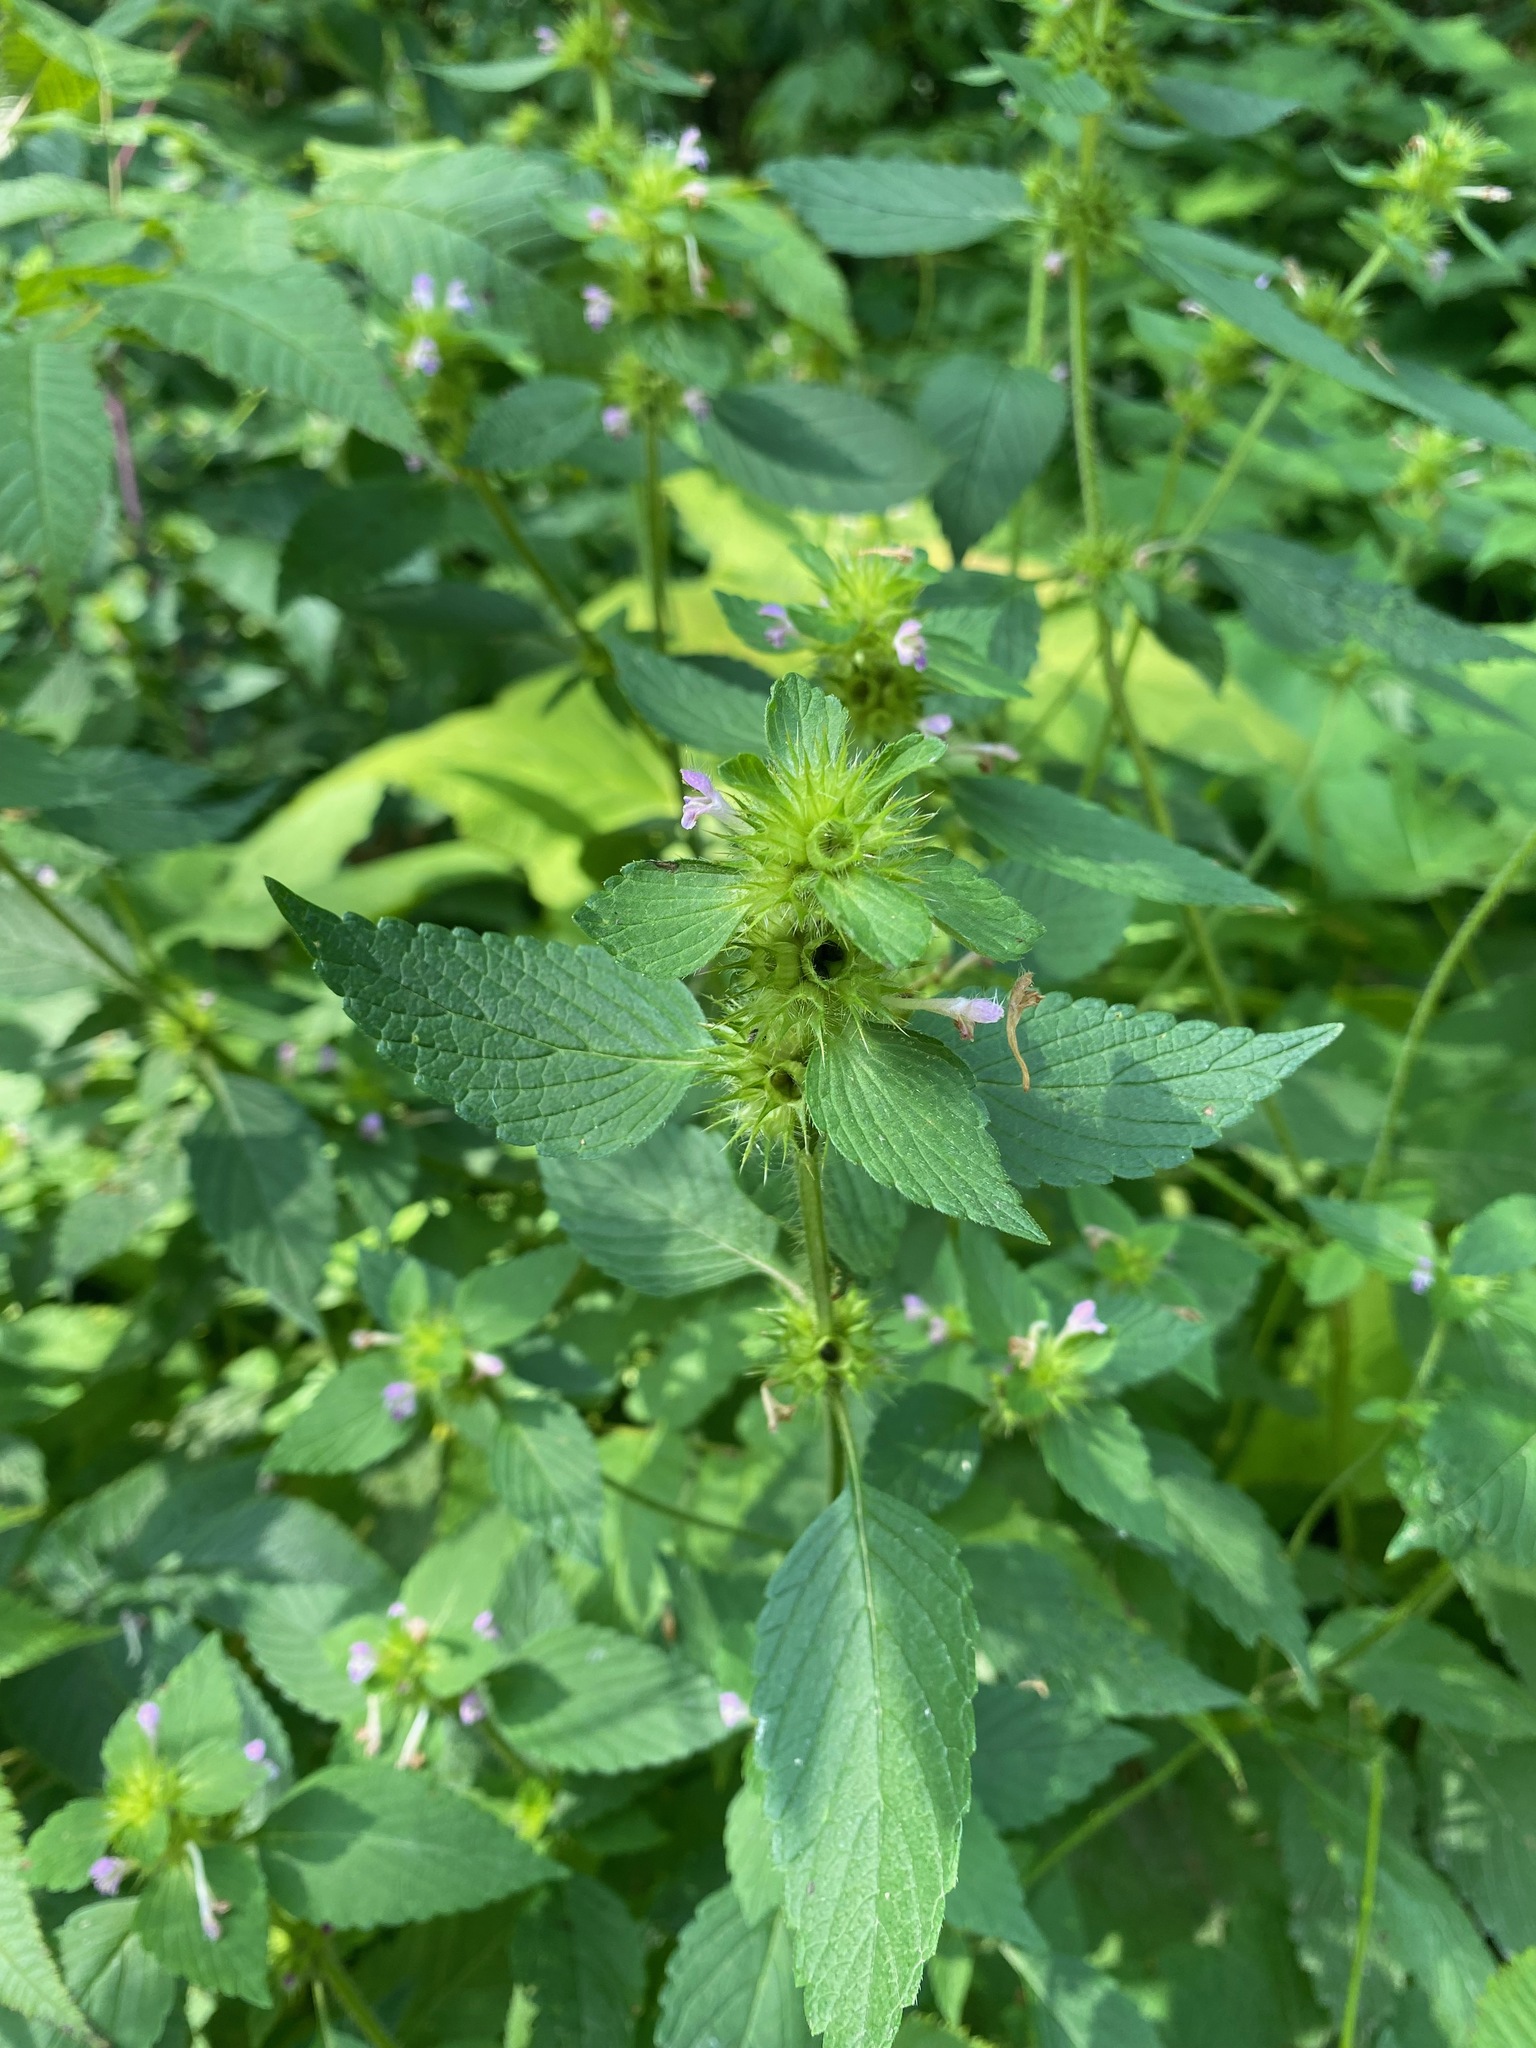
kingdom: Plantae
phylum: Tracheophyta
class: Magnoliopsida
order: Lamiales
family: Lamiaceae
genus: Galeopsis
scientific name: Galeopsis bifida
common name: Bifid hemp-nettle
